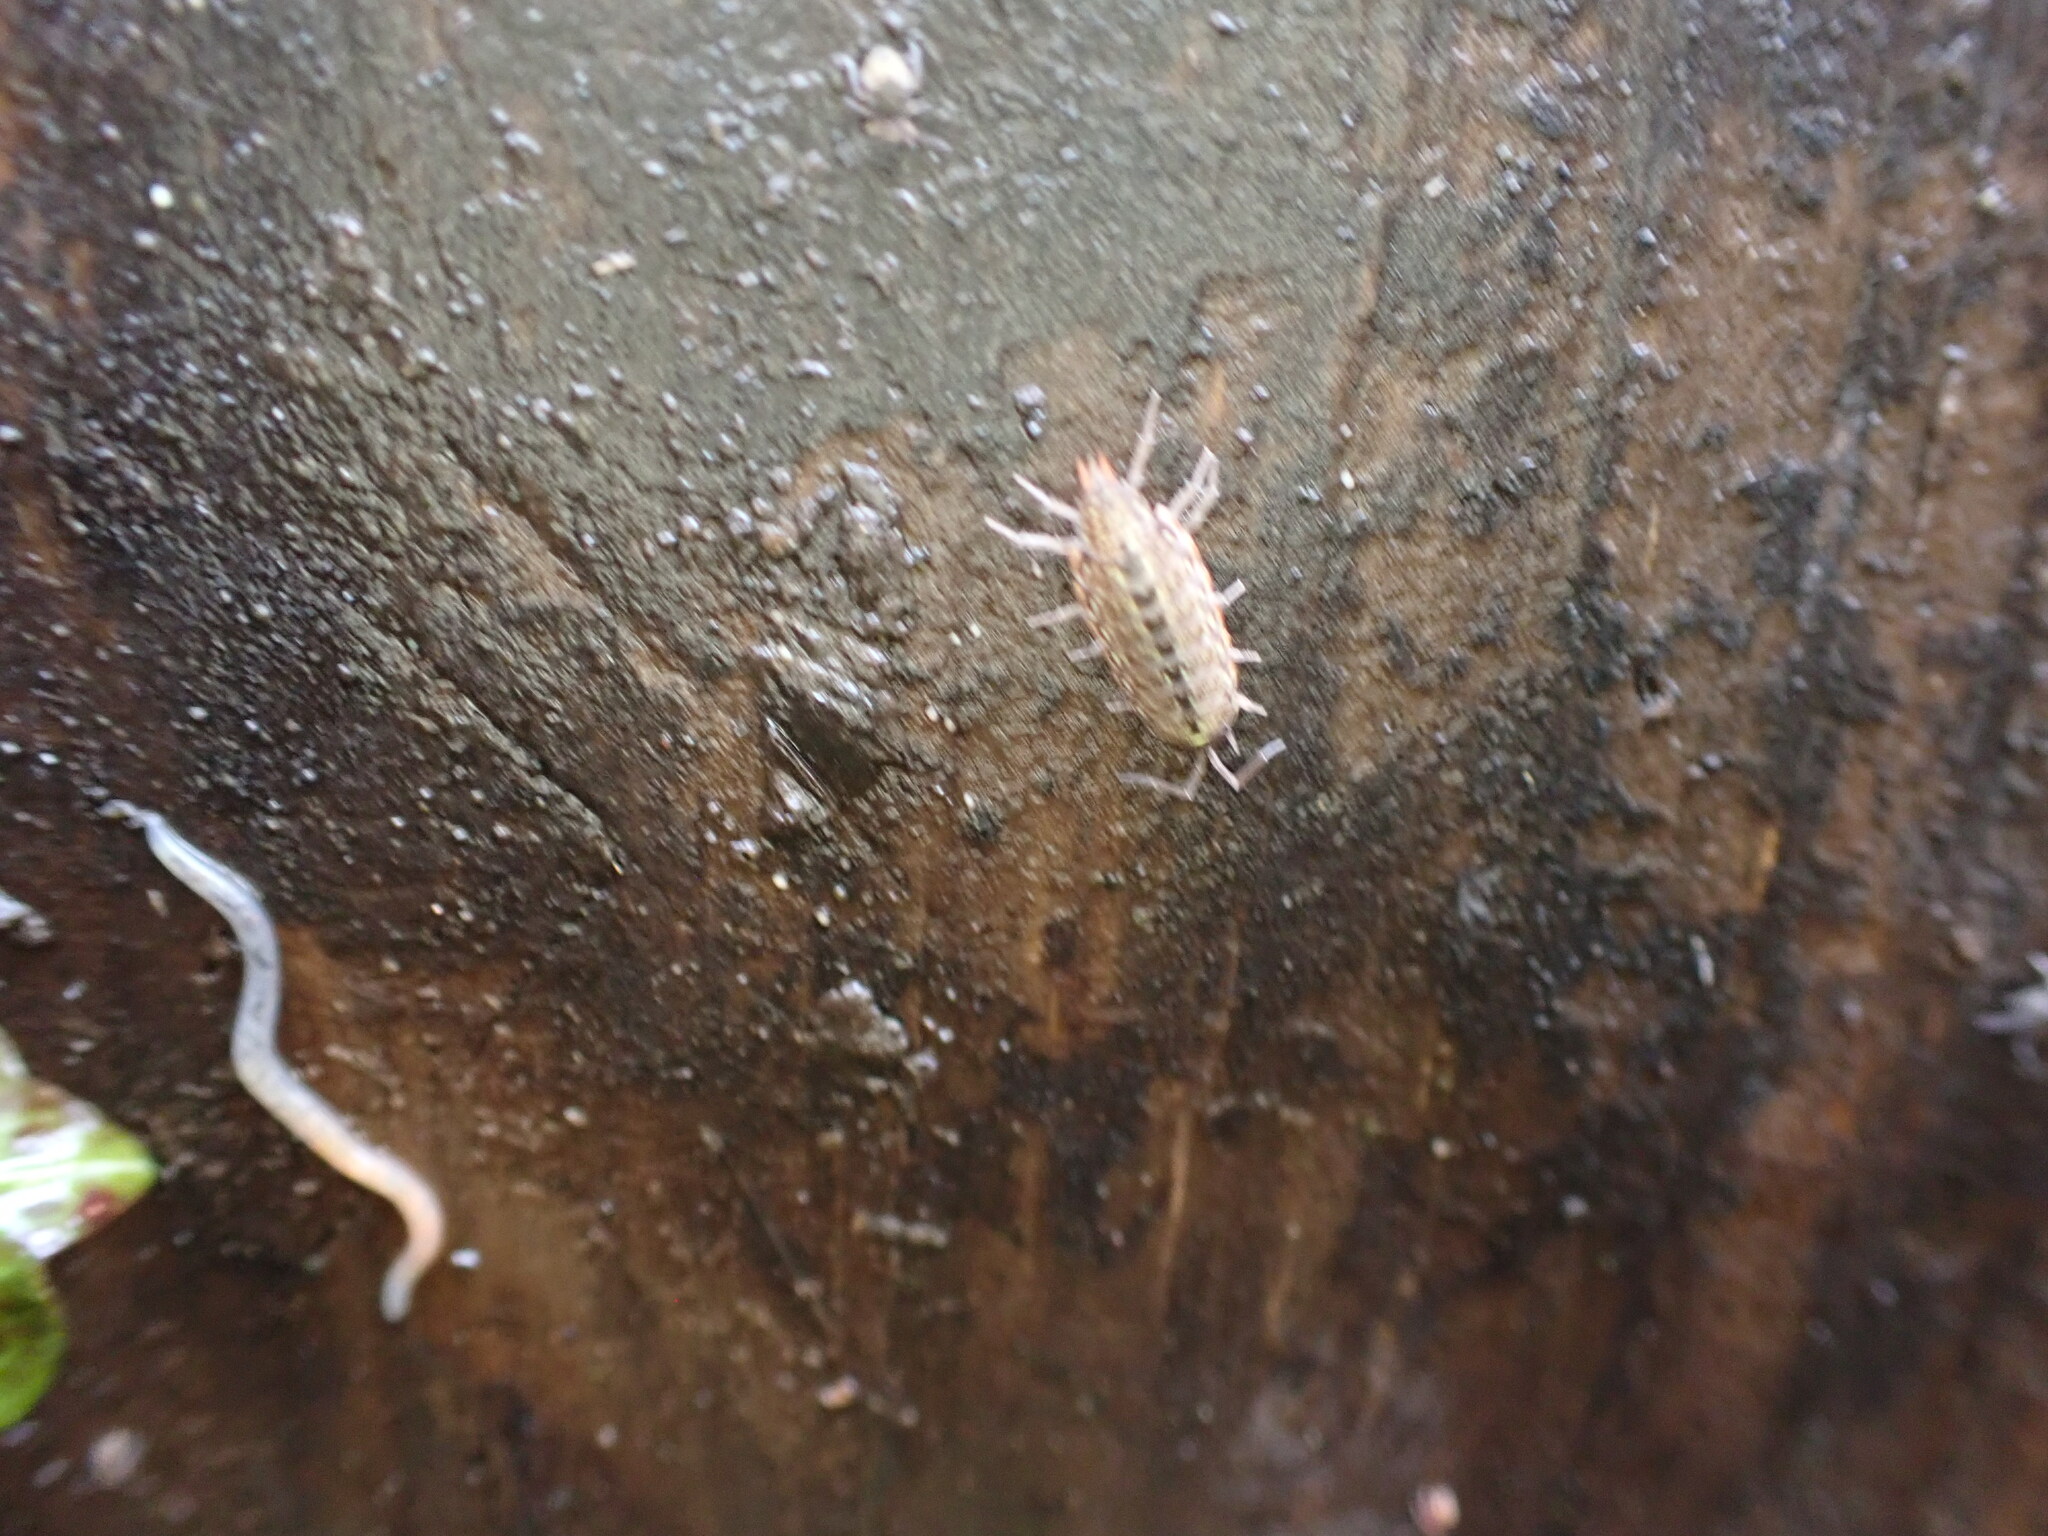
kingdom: Animalia
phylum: Arthropoda
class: Malacostraca
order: Isopoda
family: Philosciidae
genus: Philoscia
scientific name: Philoscia muscorum
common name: Common striped woodlouse
